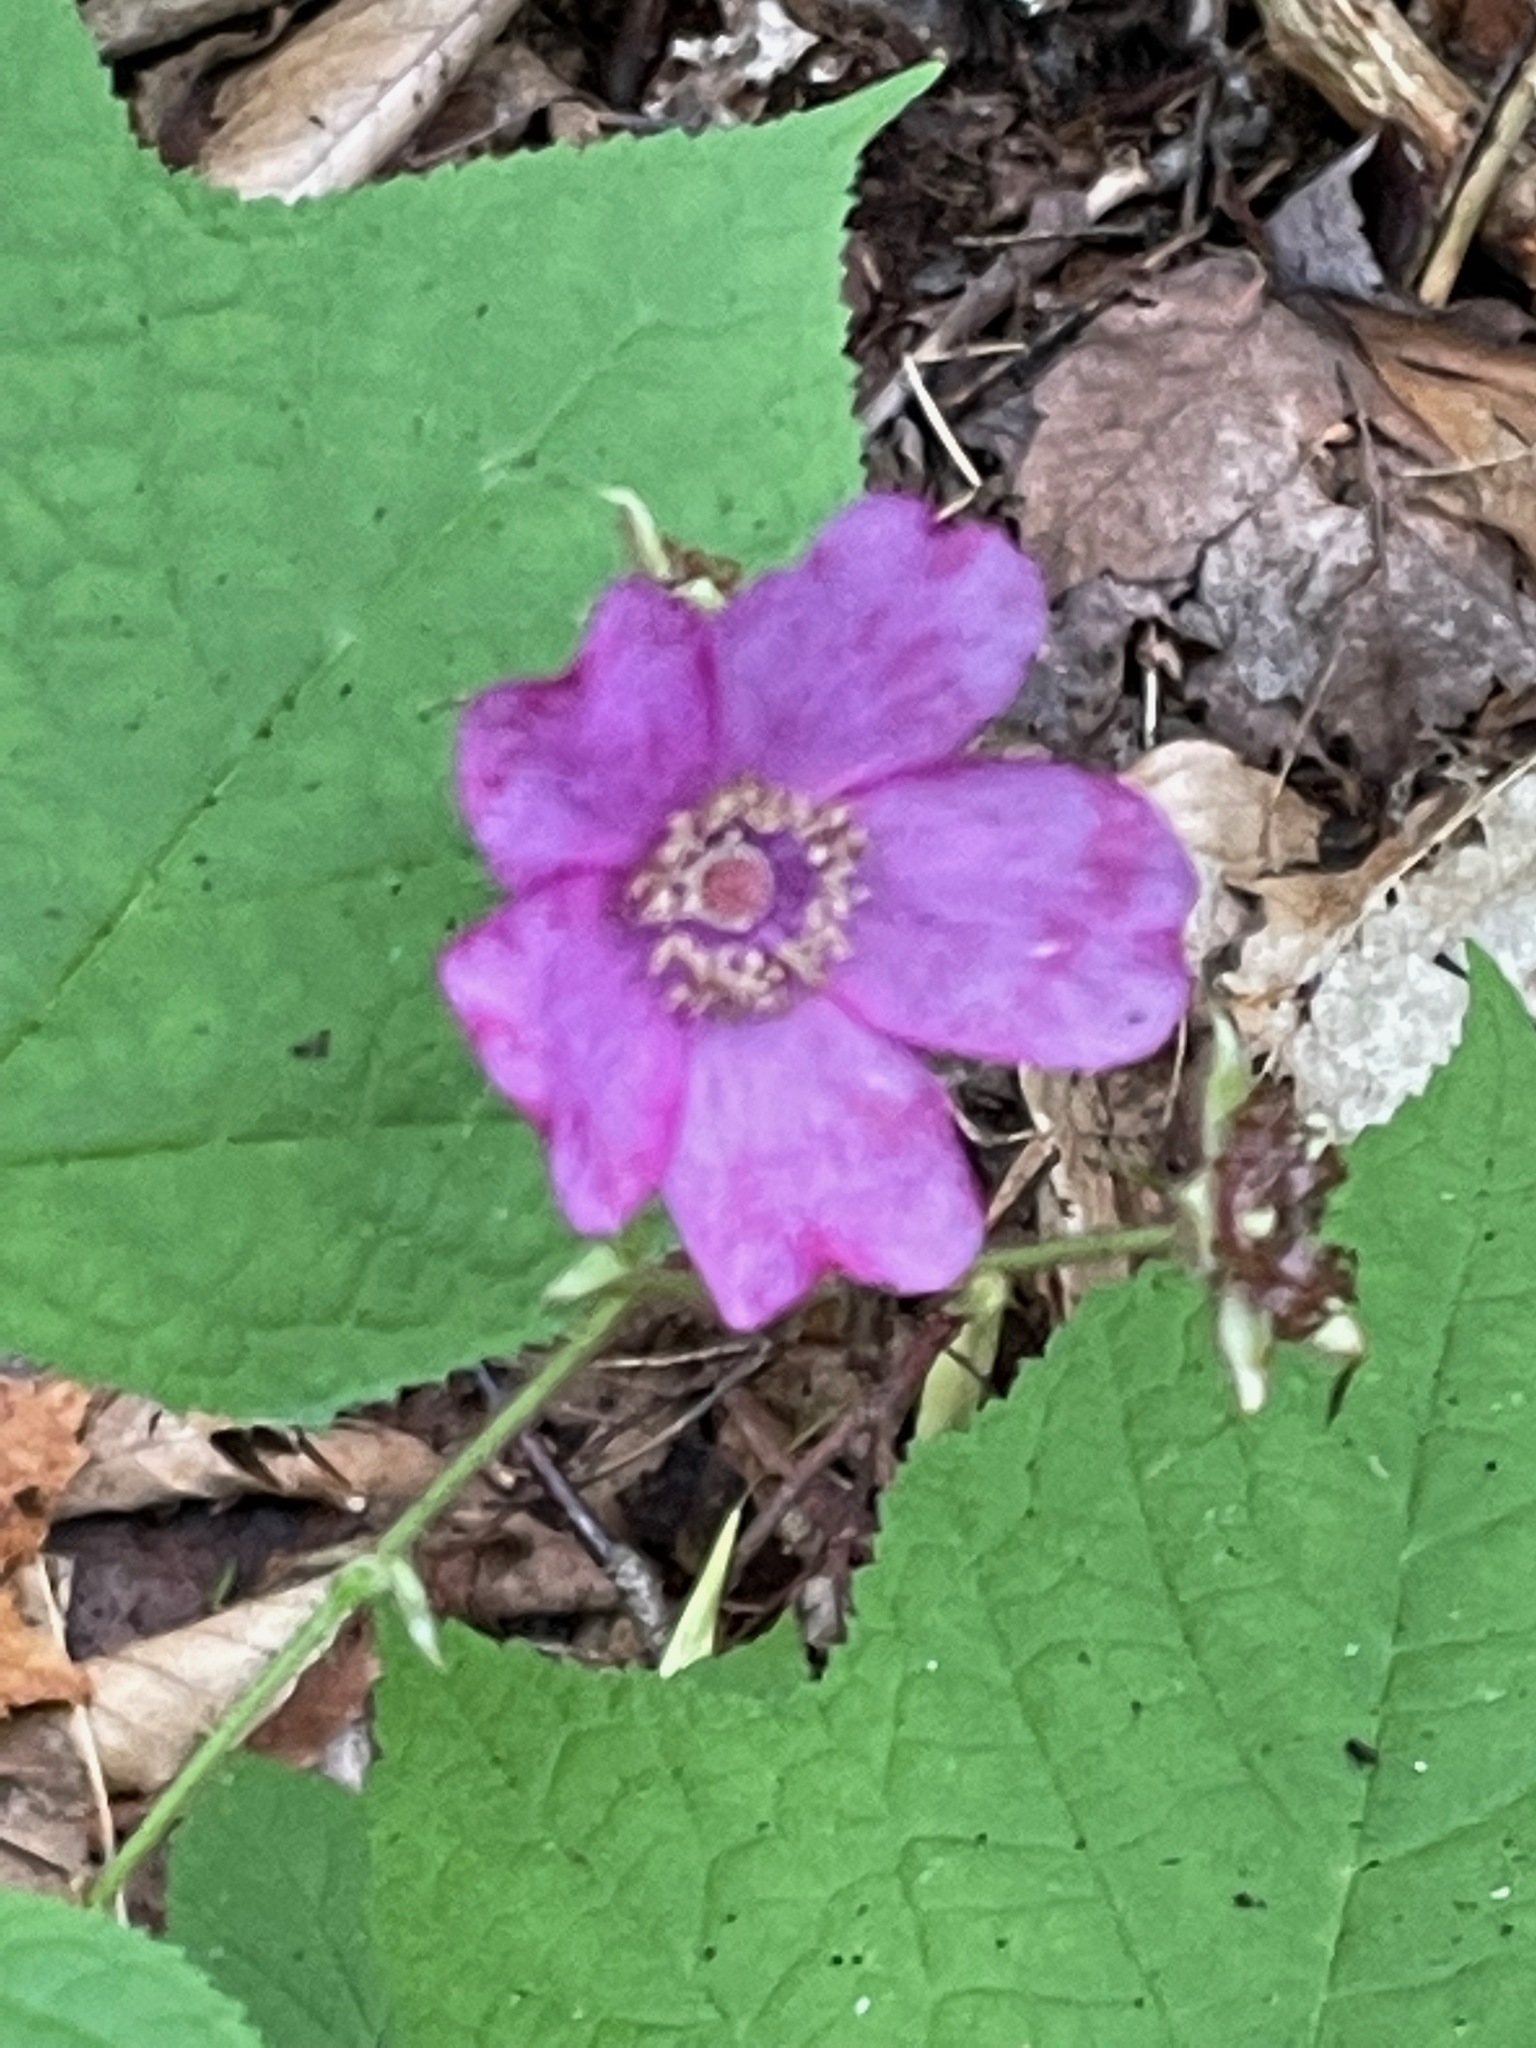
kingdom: Plantae
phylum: Tracheophyta
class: Magnoliopsida
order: Rosales
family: Rosaceae
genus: Rubus
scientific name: Rubus odoratus
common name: Purple-flowered raspberry
